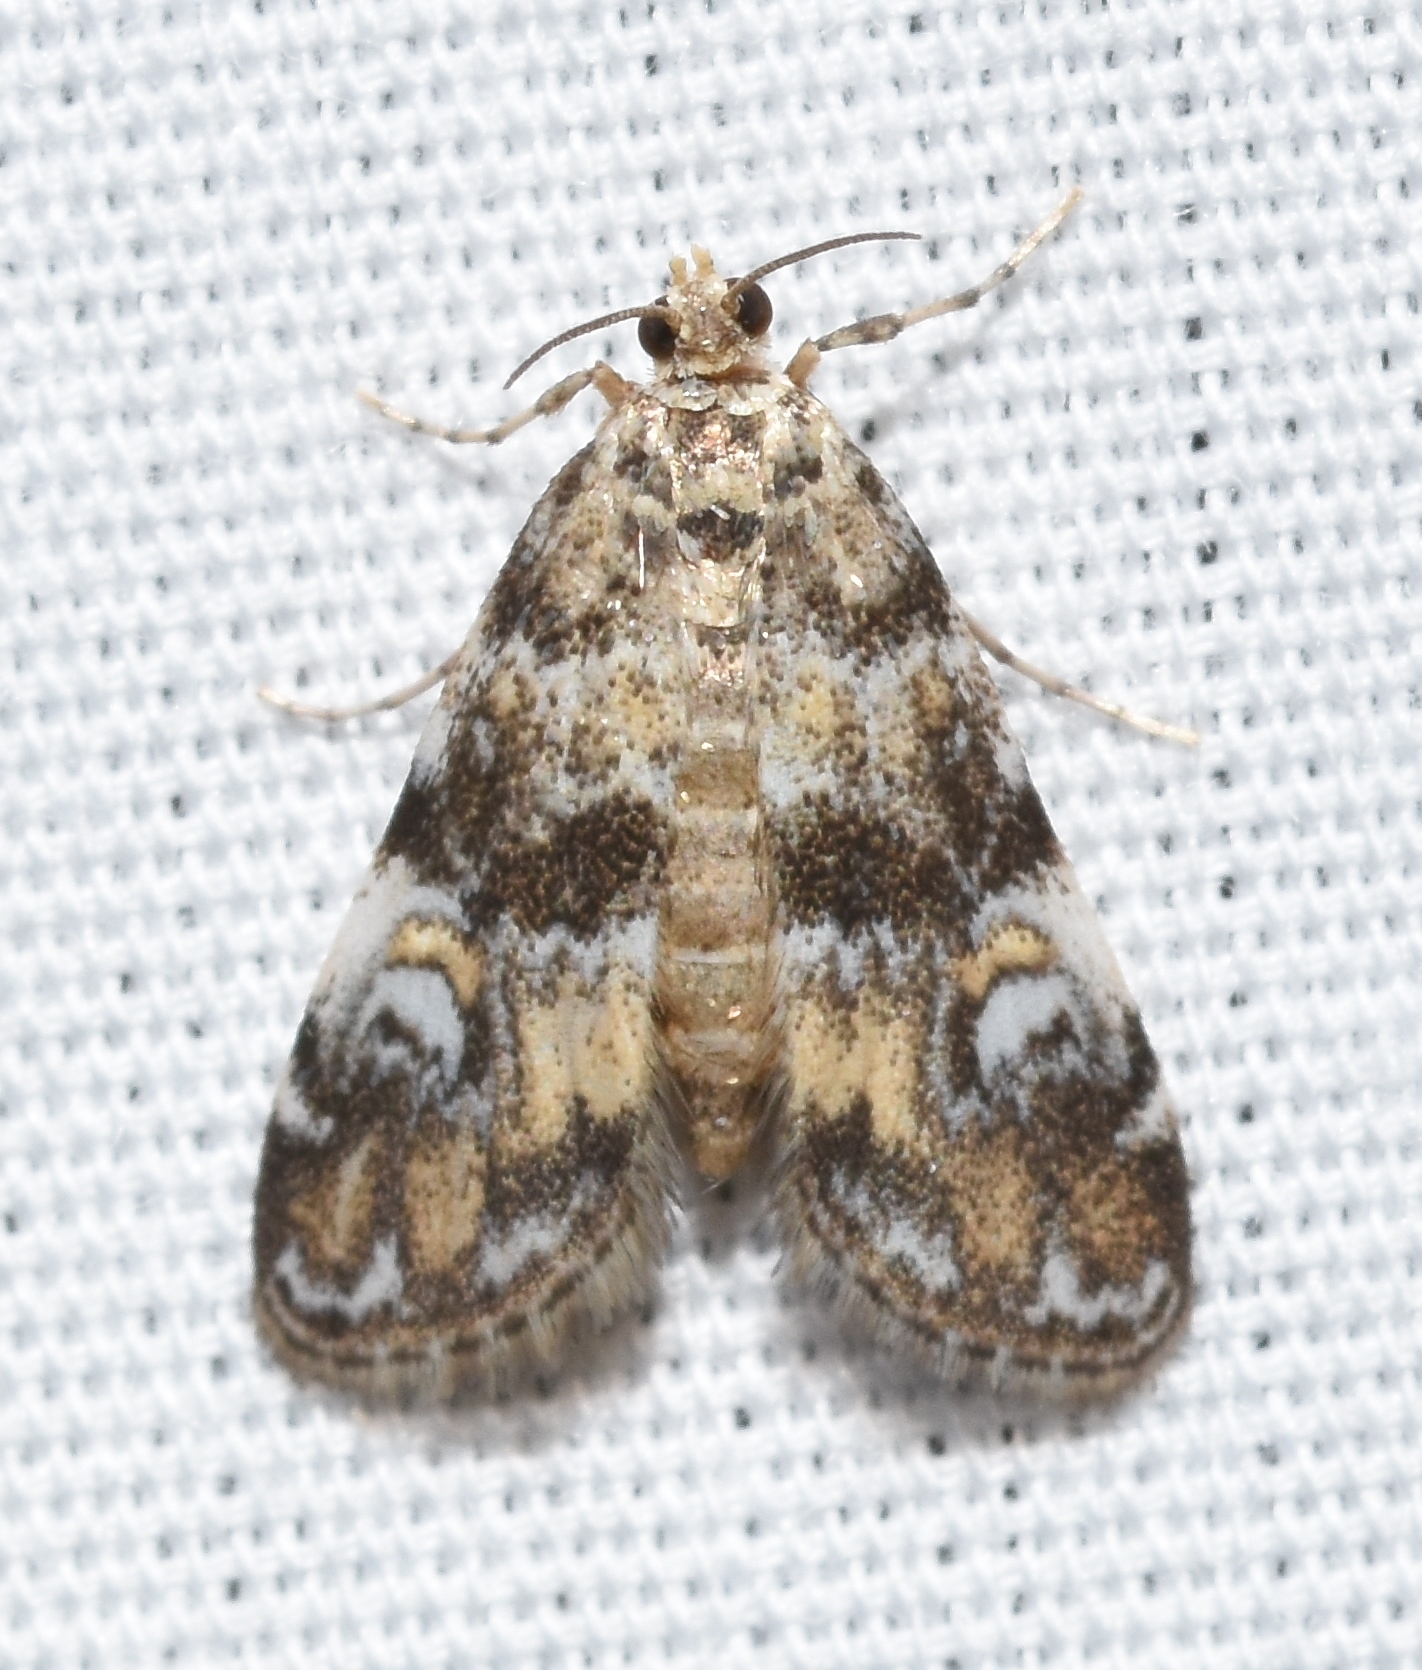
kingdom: Animalia
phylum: Arthropoda
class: Insecta
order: Lepidoptera
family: Crambidae
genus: Elophila
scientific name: Elophila obliteralis
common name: Waterlily leafcutter moth
